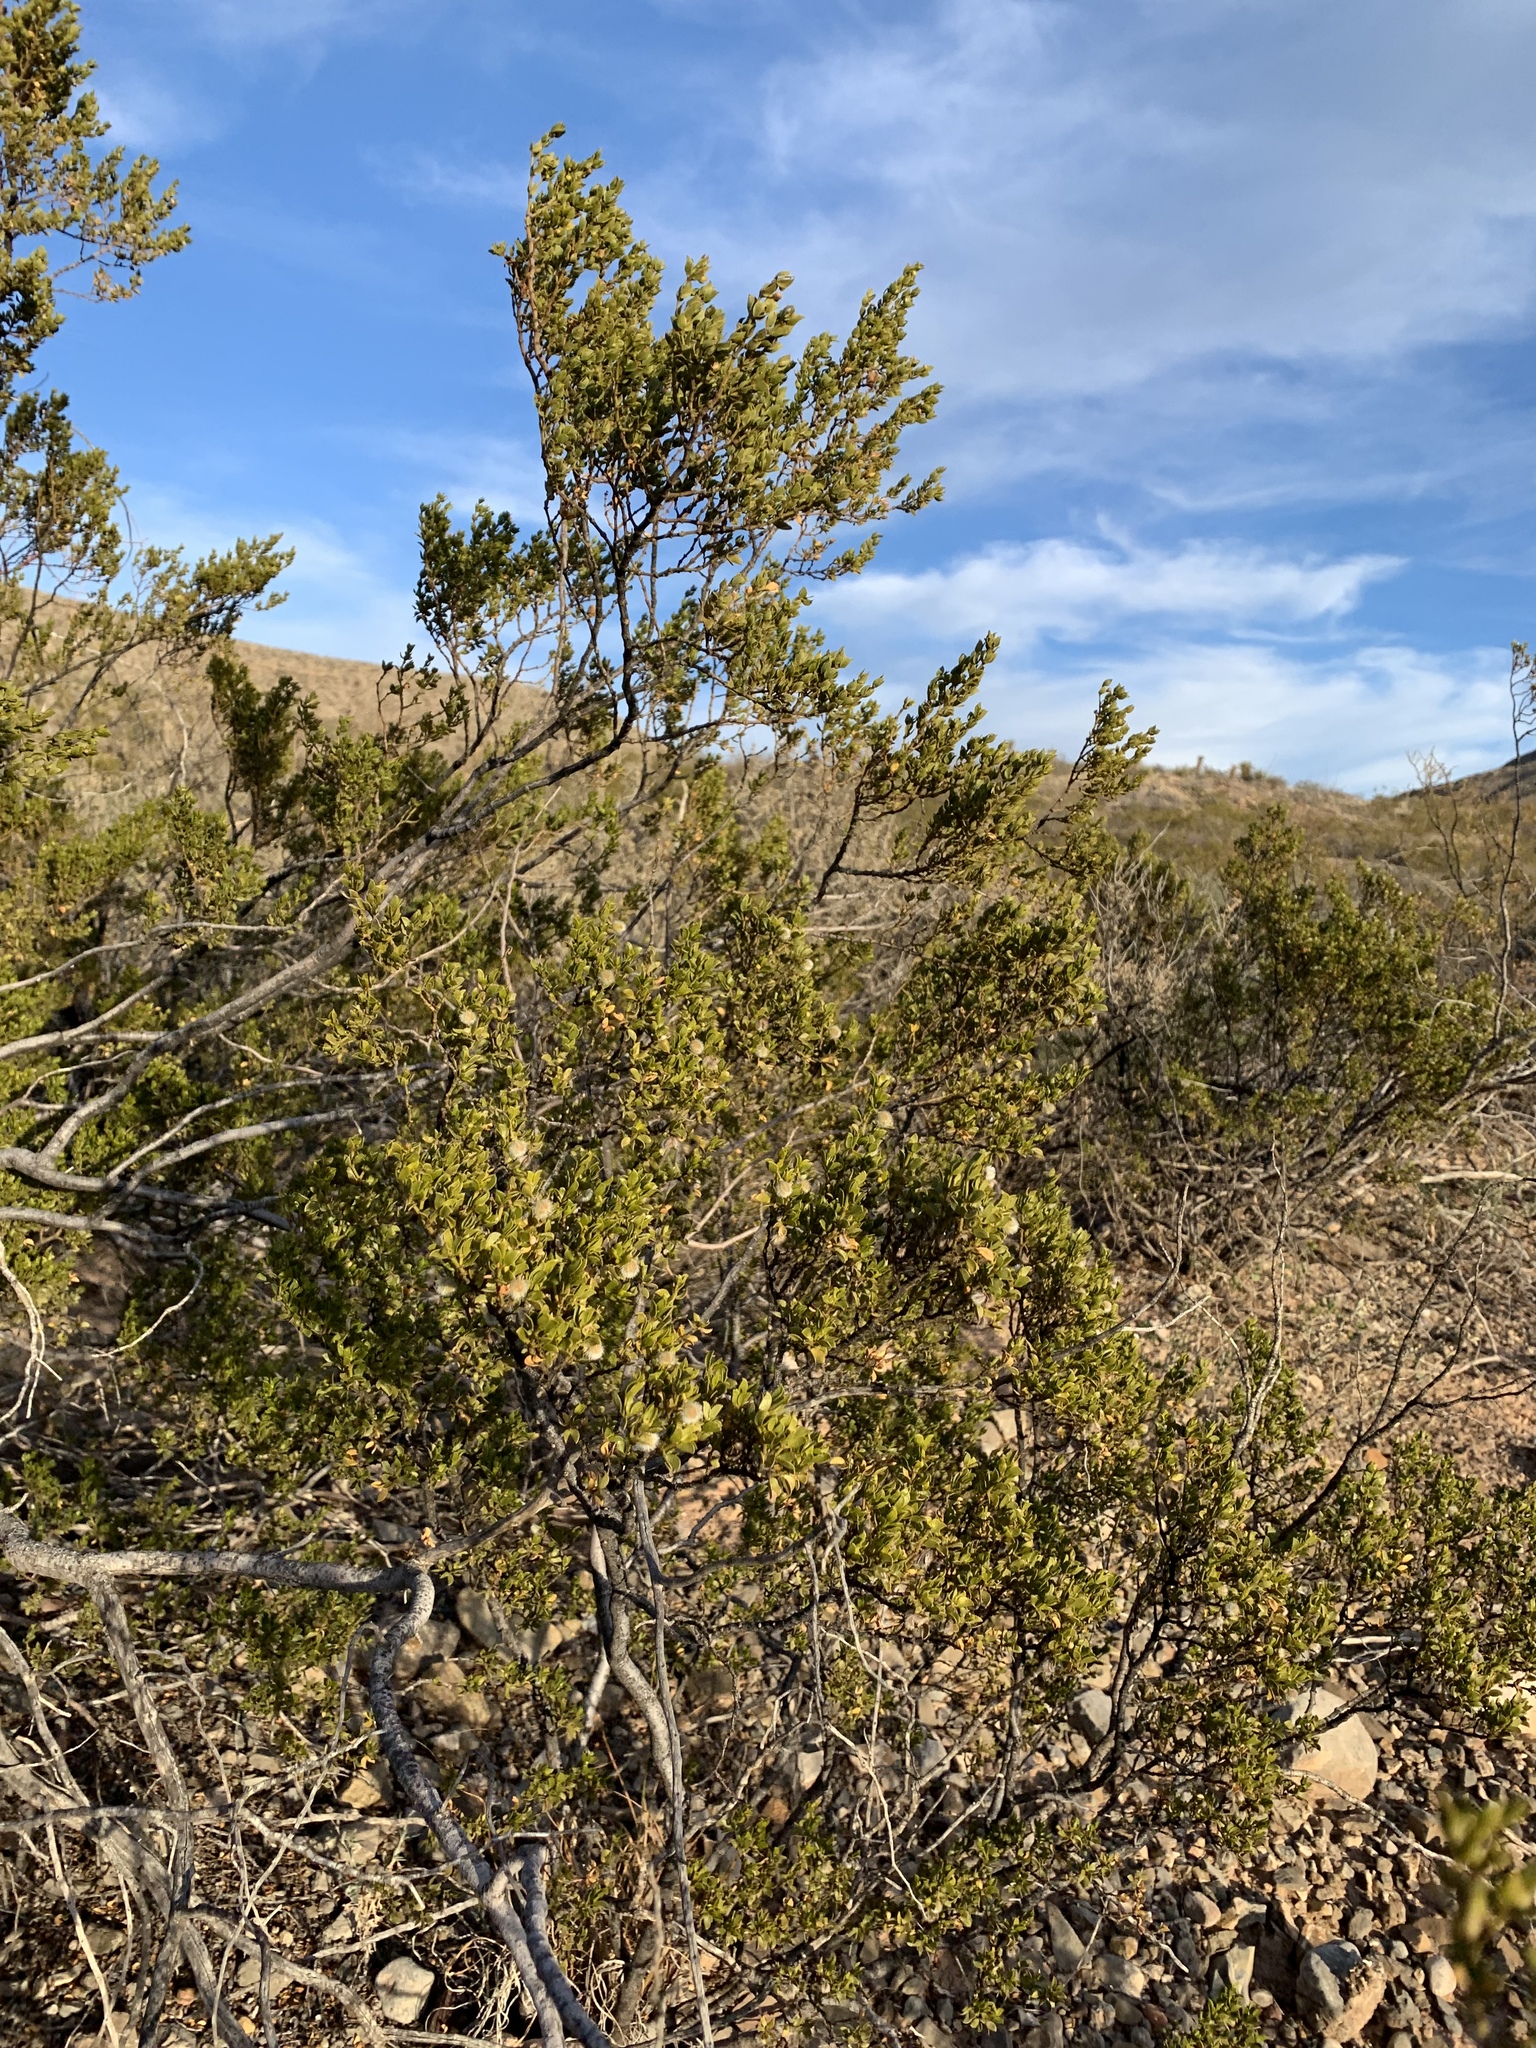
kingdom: Plantae
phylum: Tracheophyta
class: Magnoliopsida
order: Zygophyllales
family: Zygophyllaceae
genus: Larrea
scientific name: Larrea tridentata
